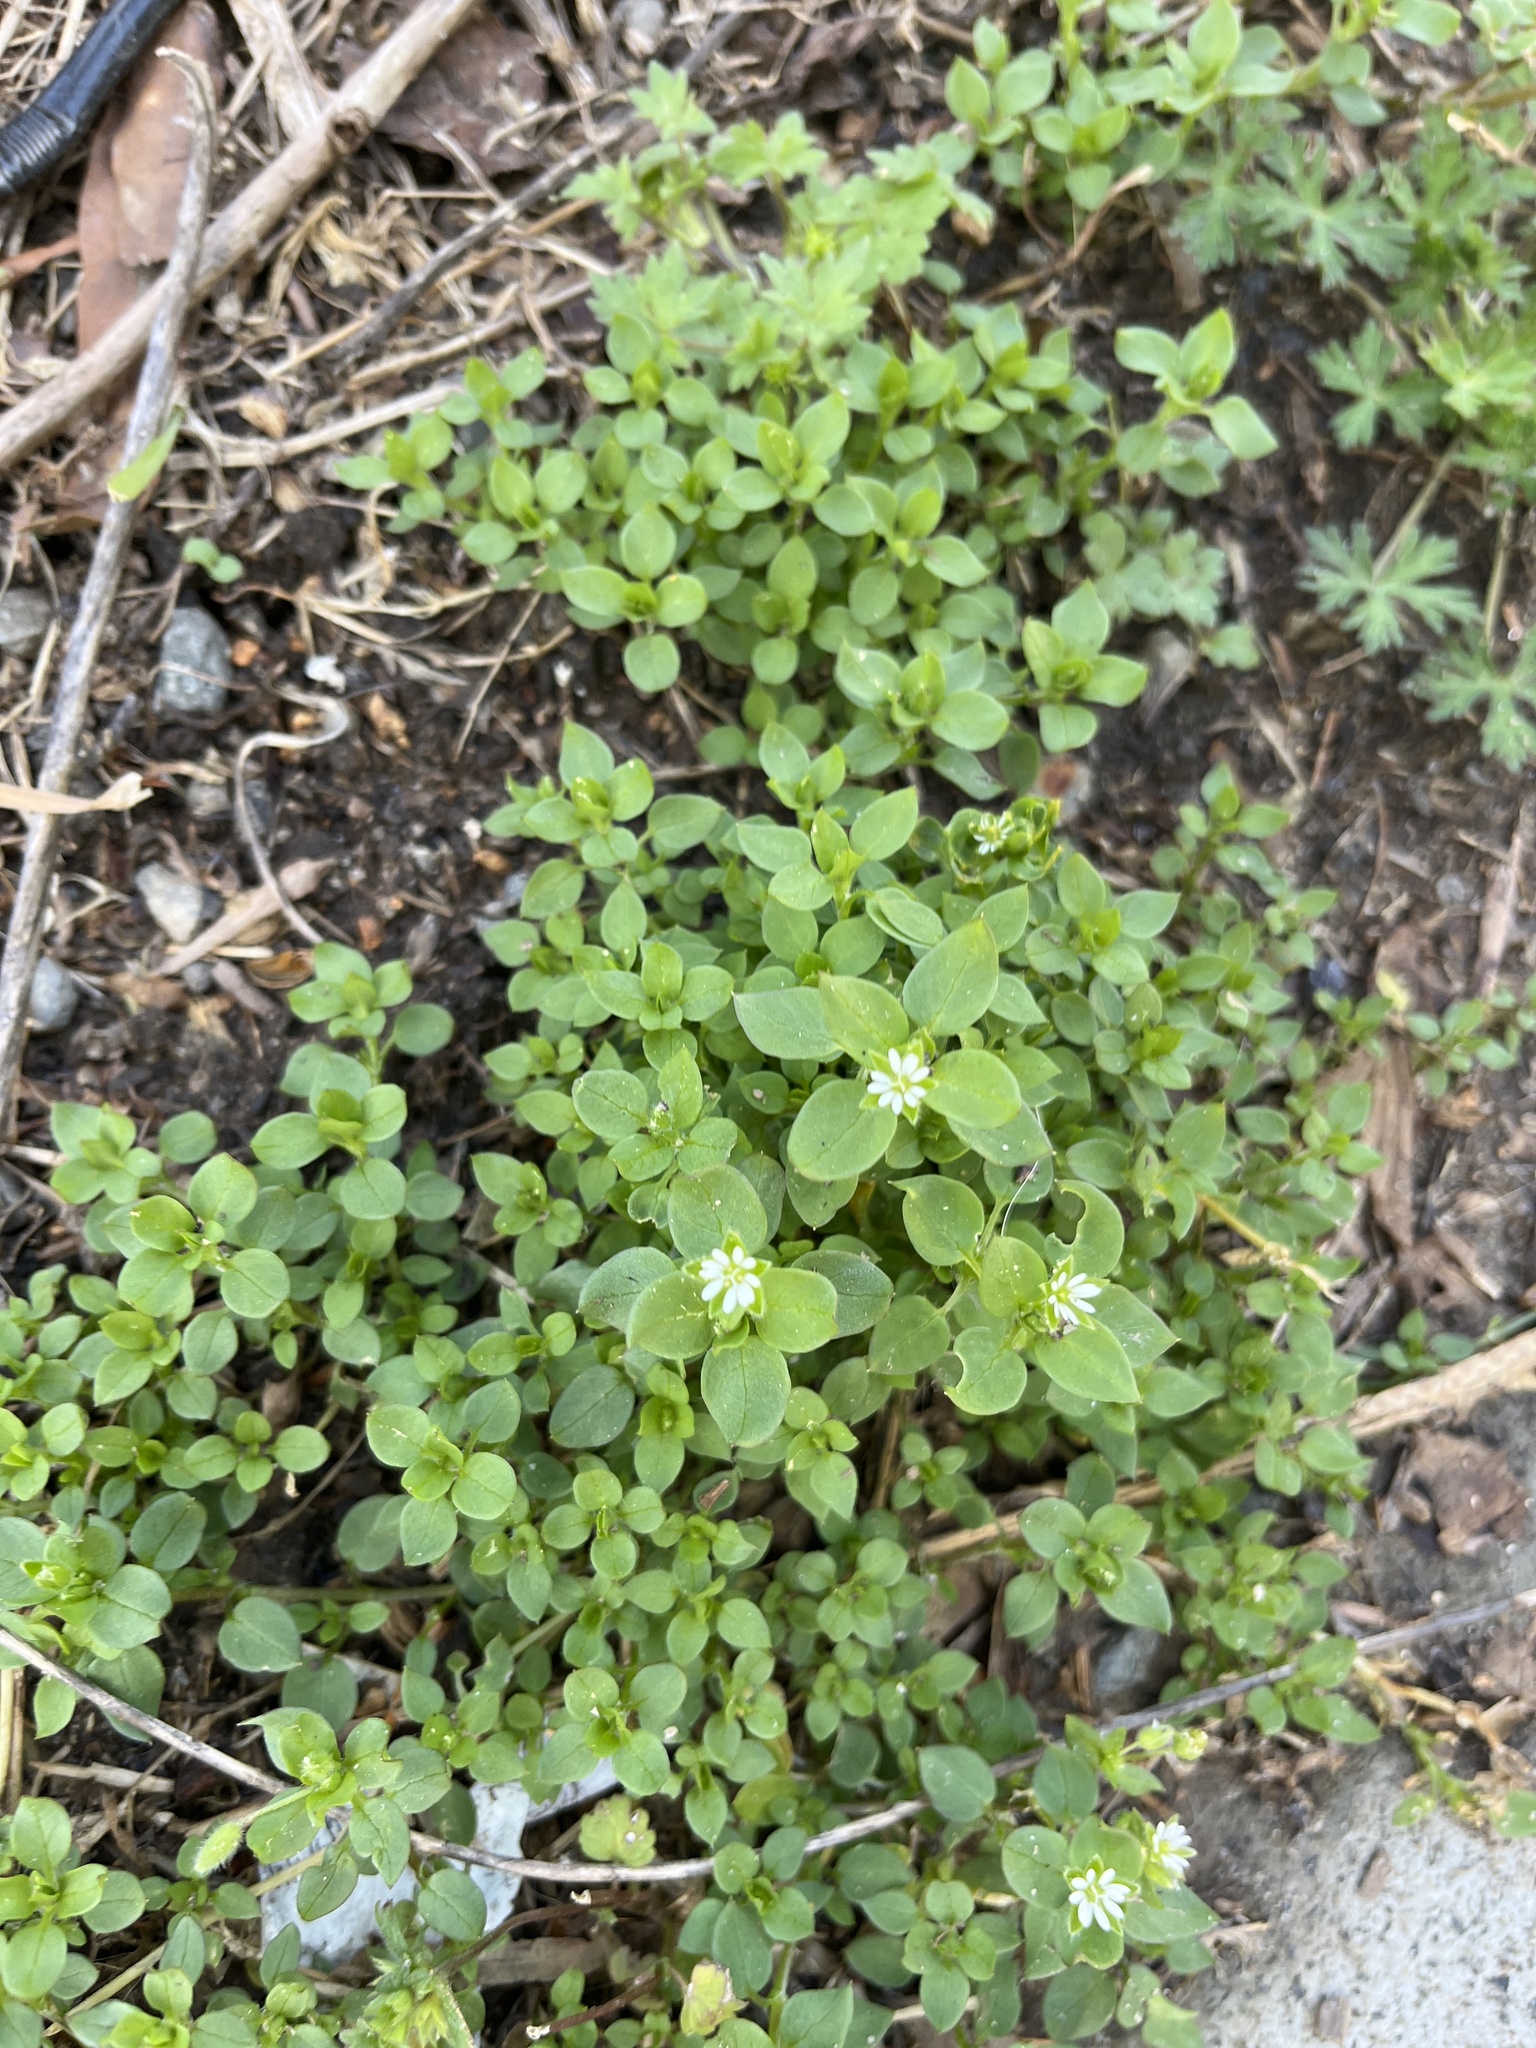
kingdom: Plantae
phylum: Tracheophyta
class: Magnoliopsida
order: Caryophyllales
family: Caryophyllaceae
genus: Stellaria
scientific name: Stellaria media
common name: Common chickweed
